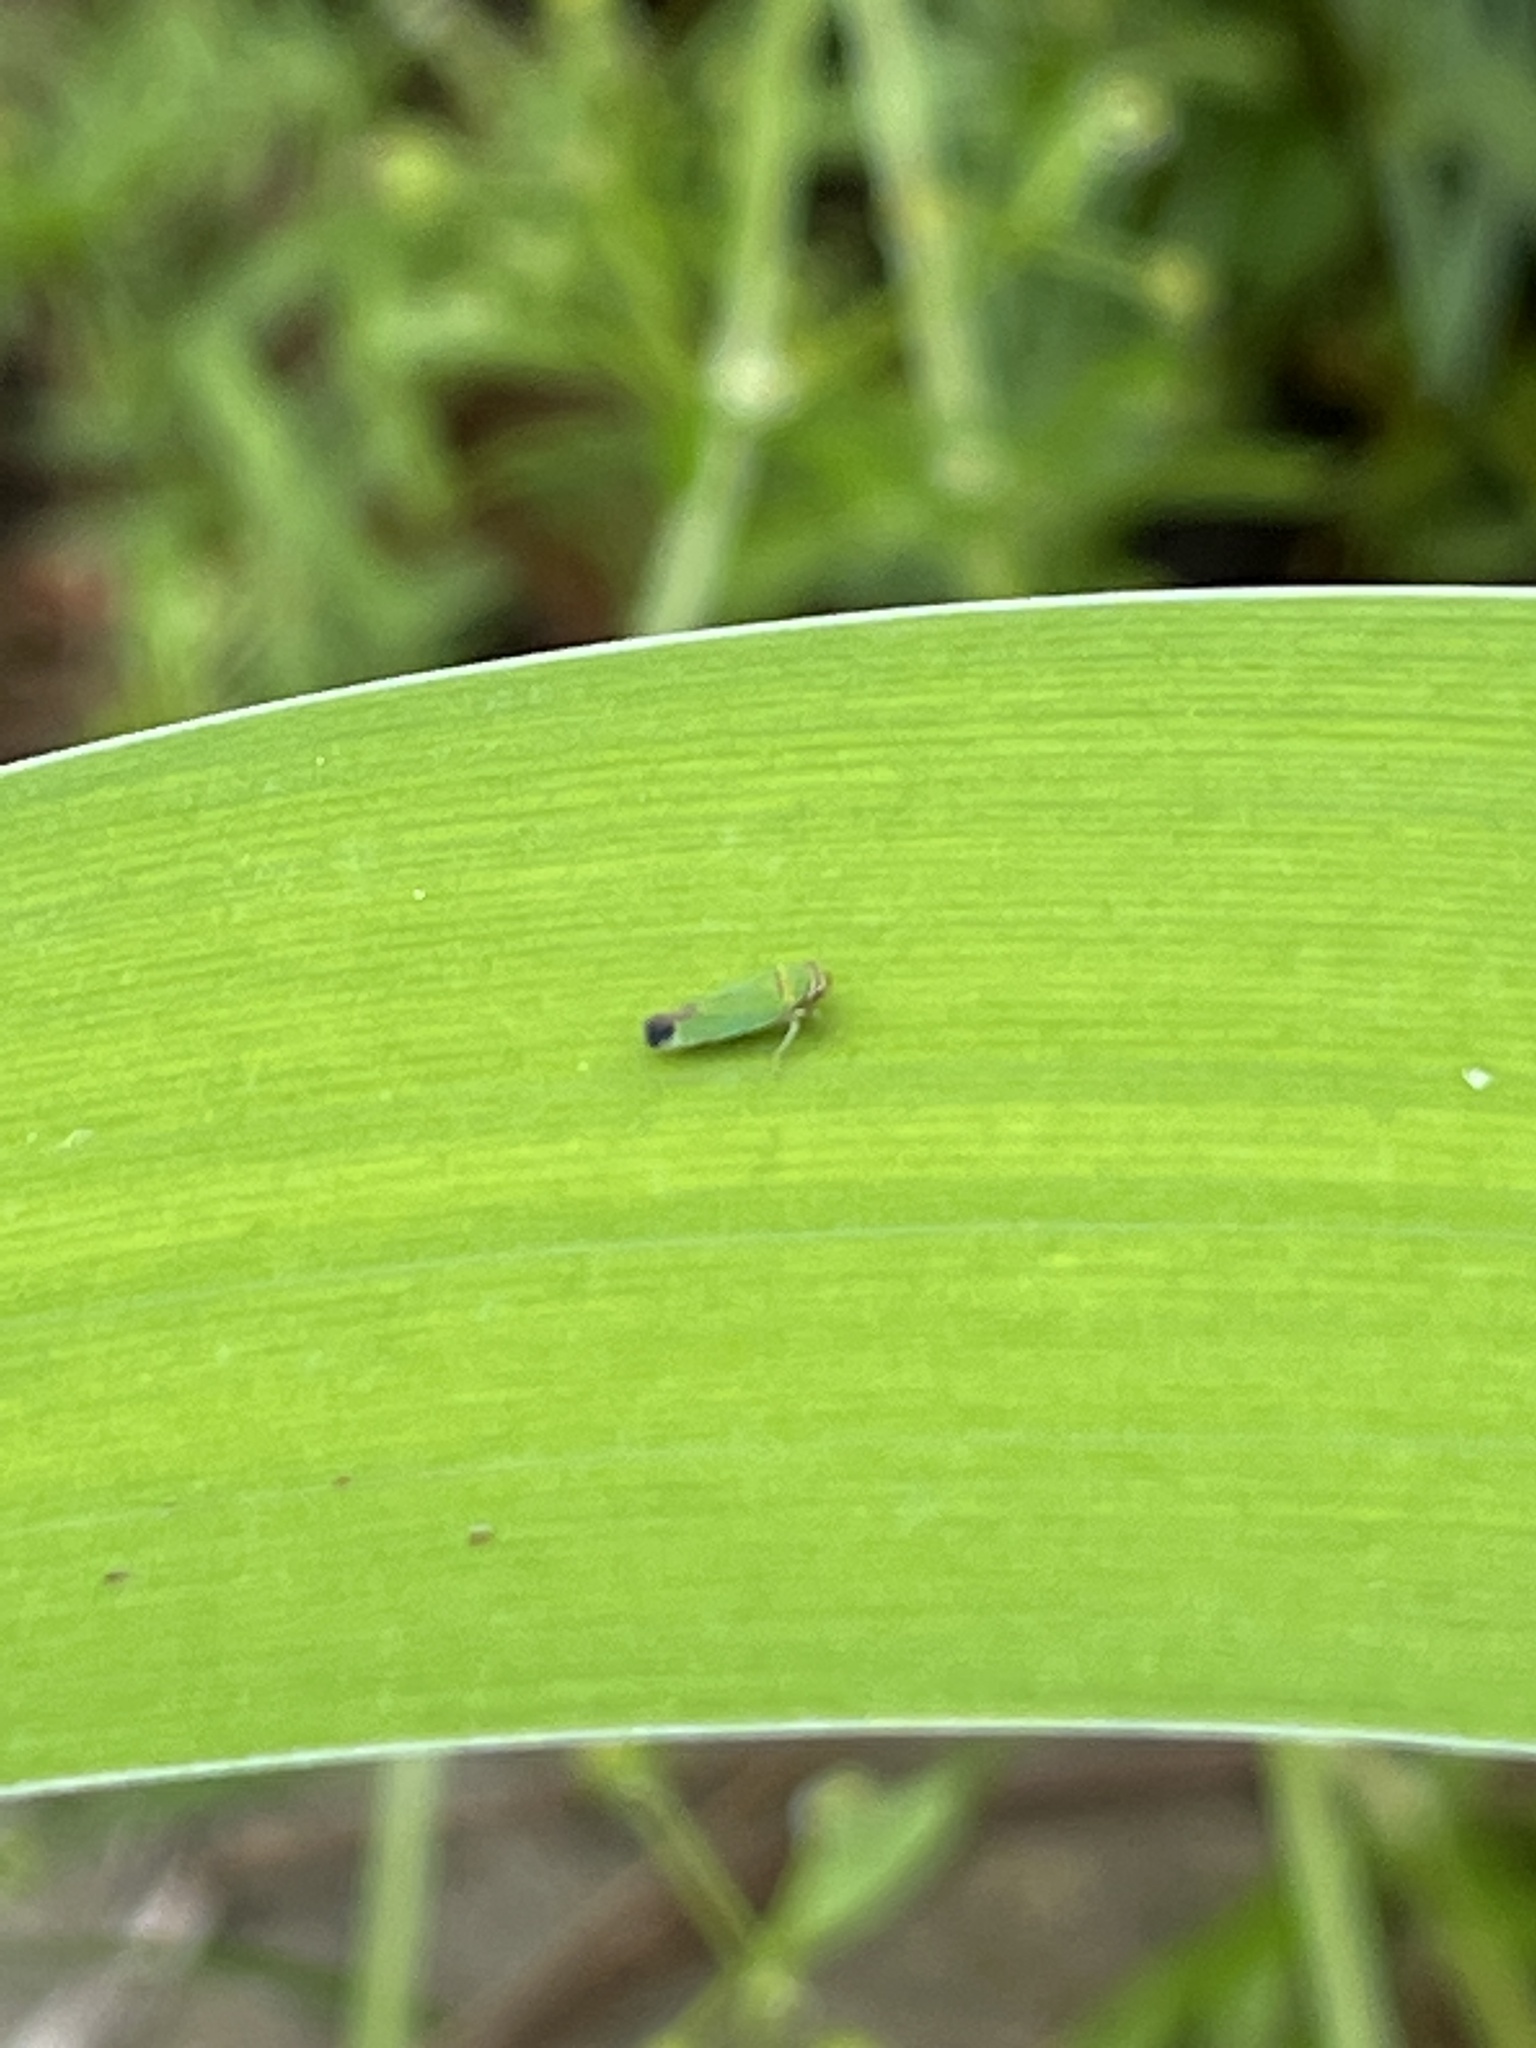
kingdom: Animalia
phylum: Arthropoda
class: Insecta
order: Hemiptera
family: Cicadellidae
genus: Tylozygus
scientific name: Tylozygus geometricus
